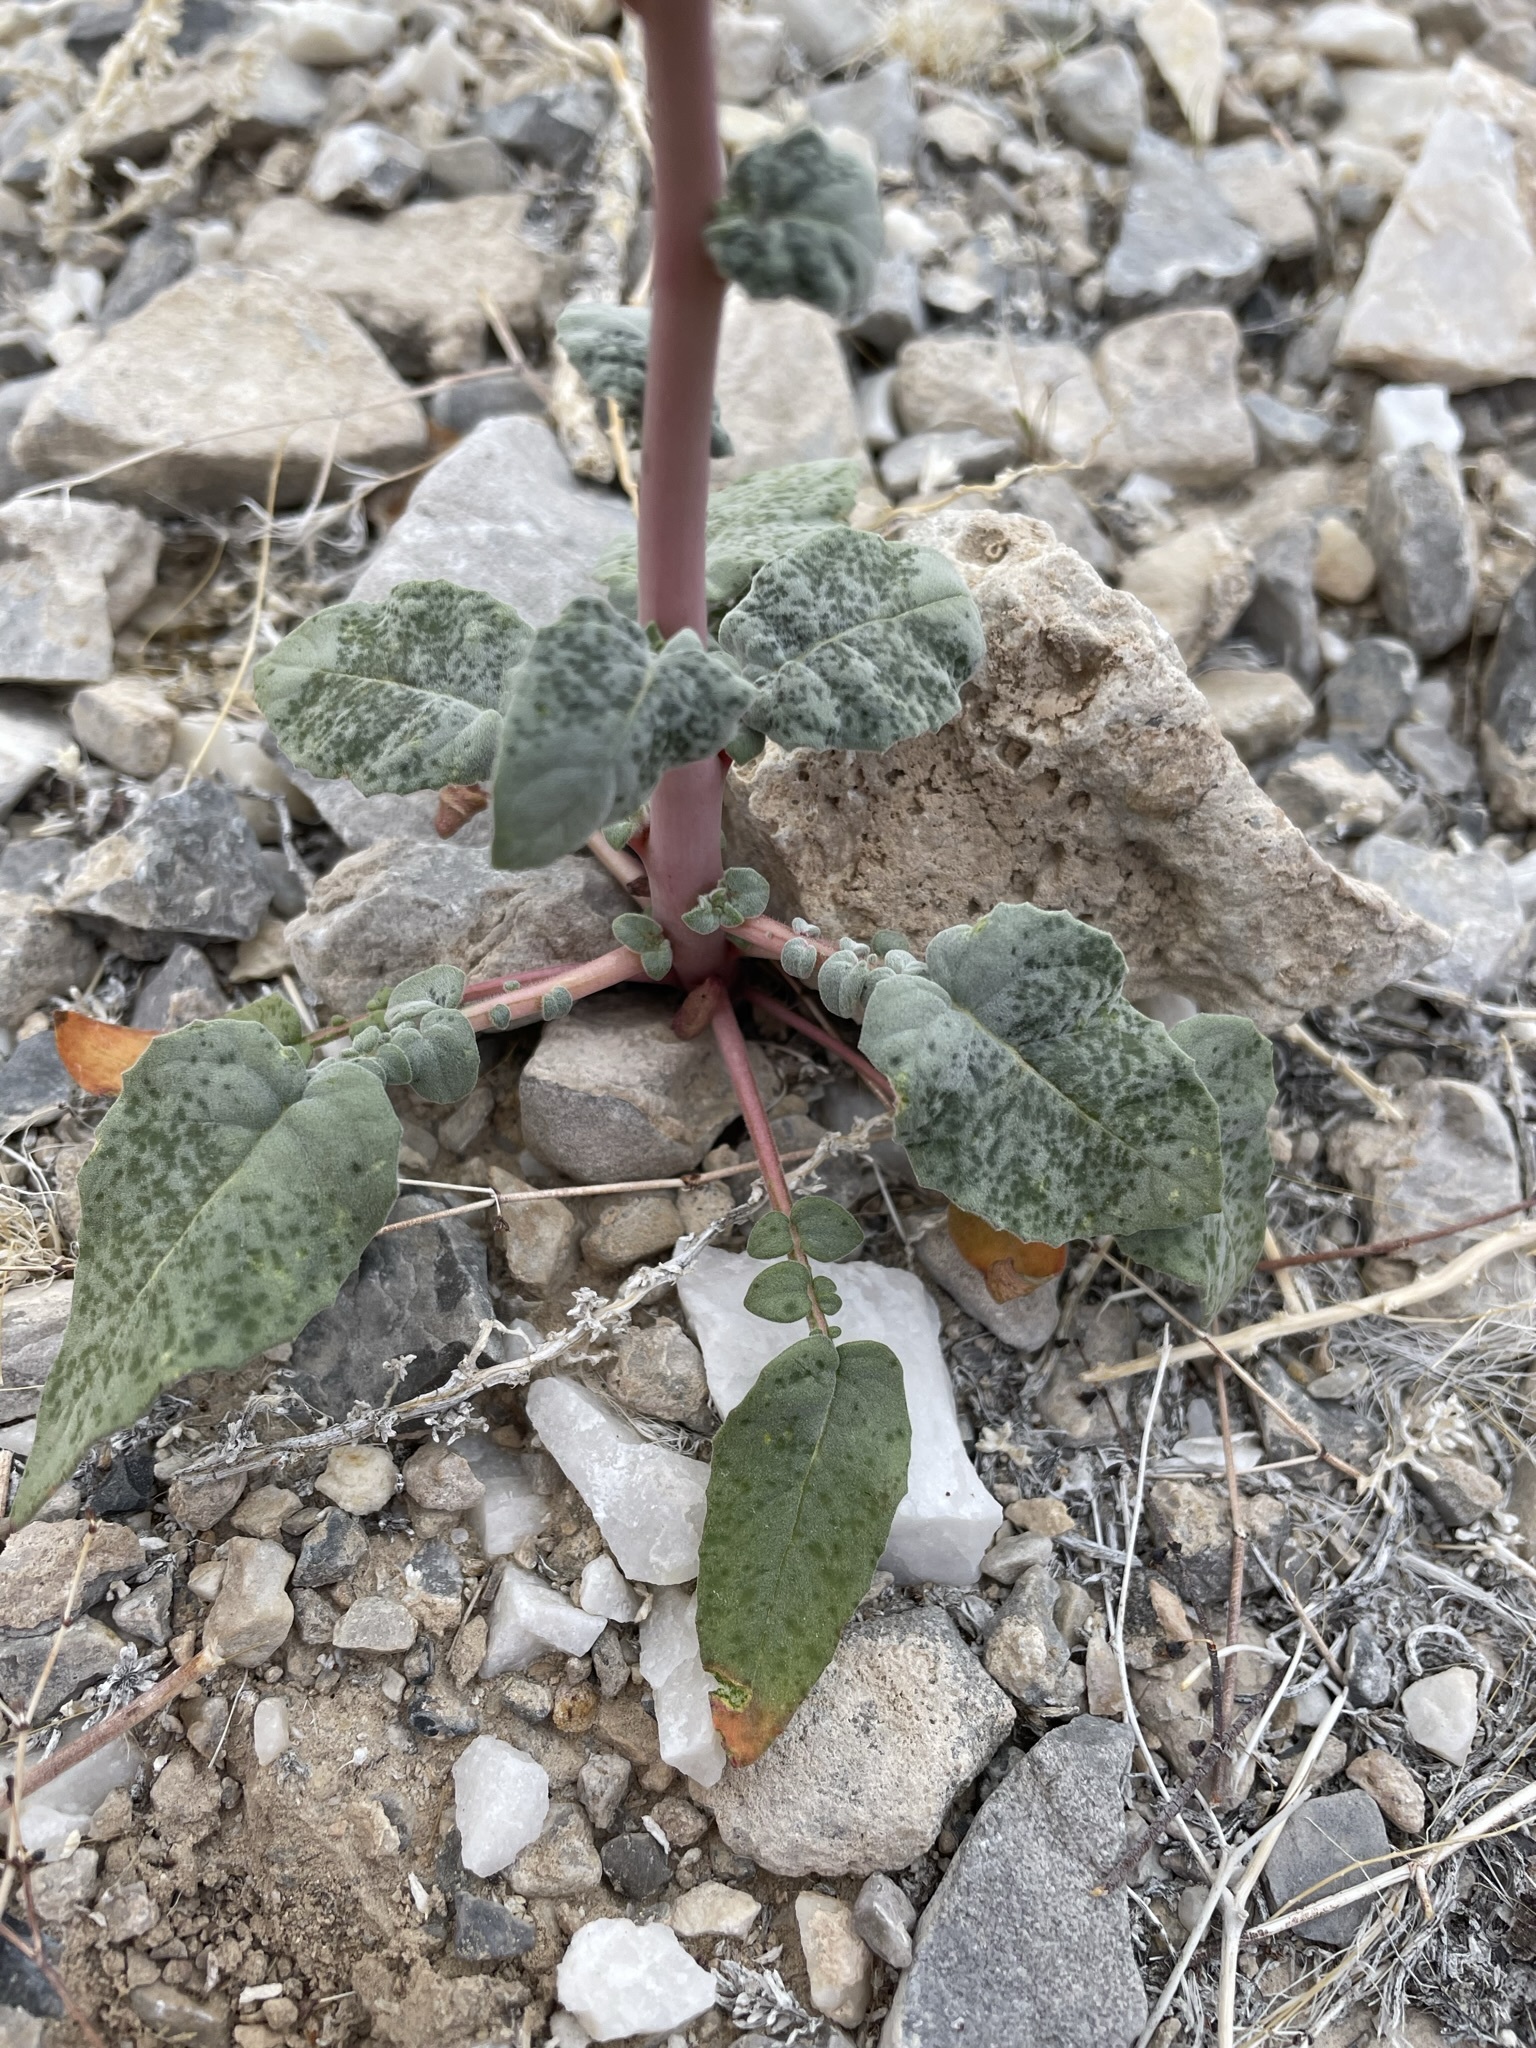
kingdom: Plantae
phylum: Tracheophyta
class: Magnoliopsida
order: Myrtales
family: Onagraceae
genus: Chylismia
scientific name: Chylismia brevipes
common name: Yellow cups
